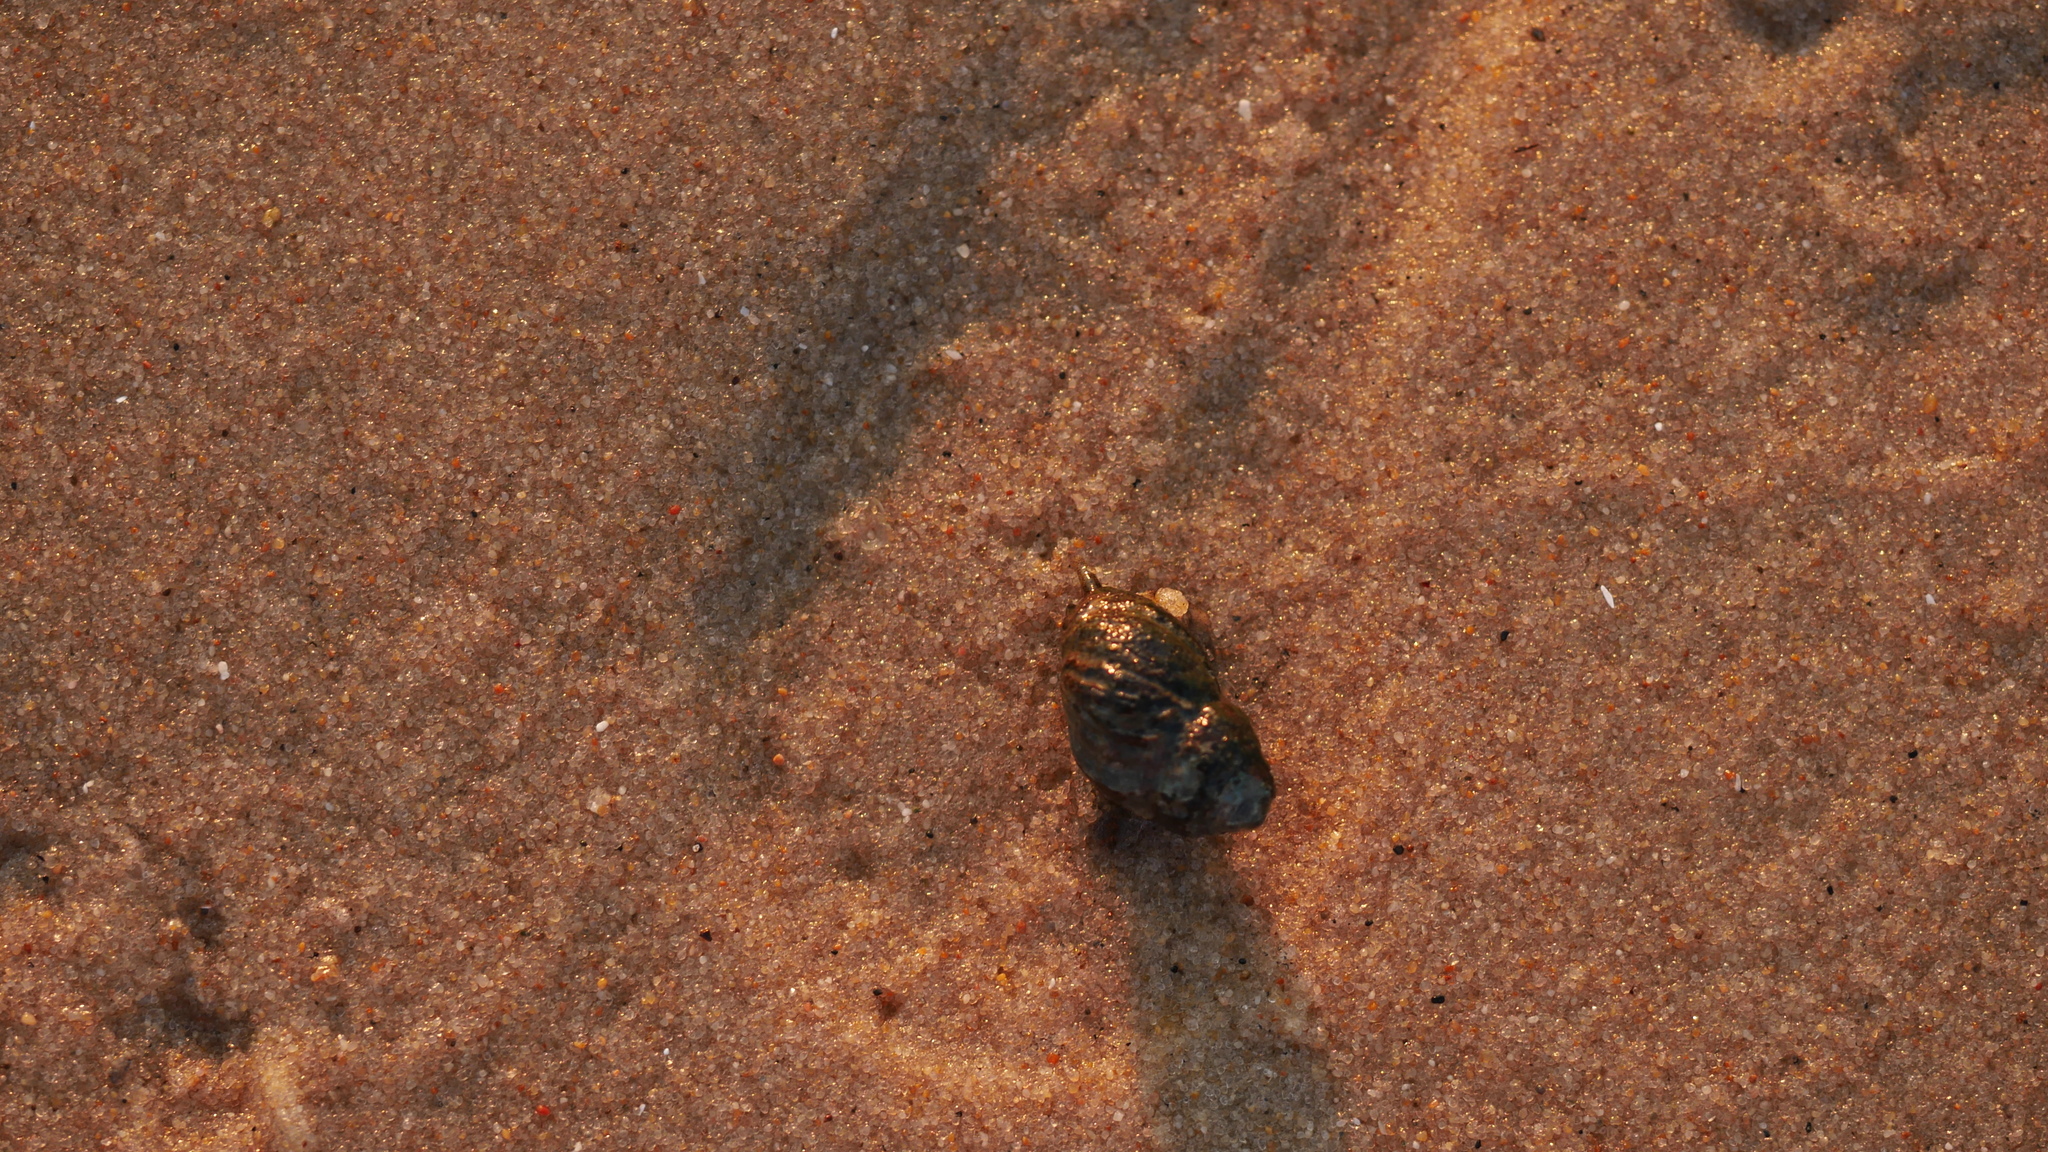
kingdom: Animalia
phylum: Mollusca
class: Gastropoda
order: Neogastropoda
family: Nassariidae
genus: Ilyanassa
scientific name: Ilyanassa obsoleta
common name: Eastern mudsnail
